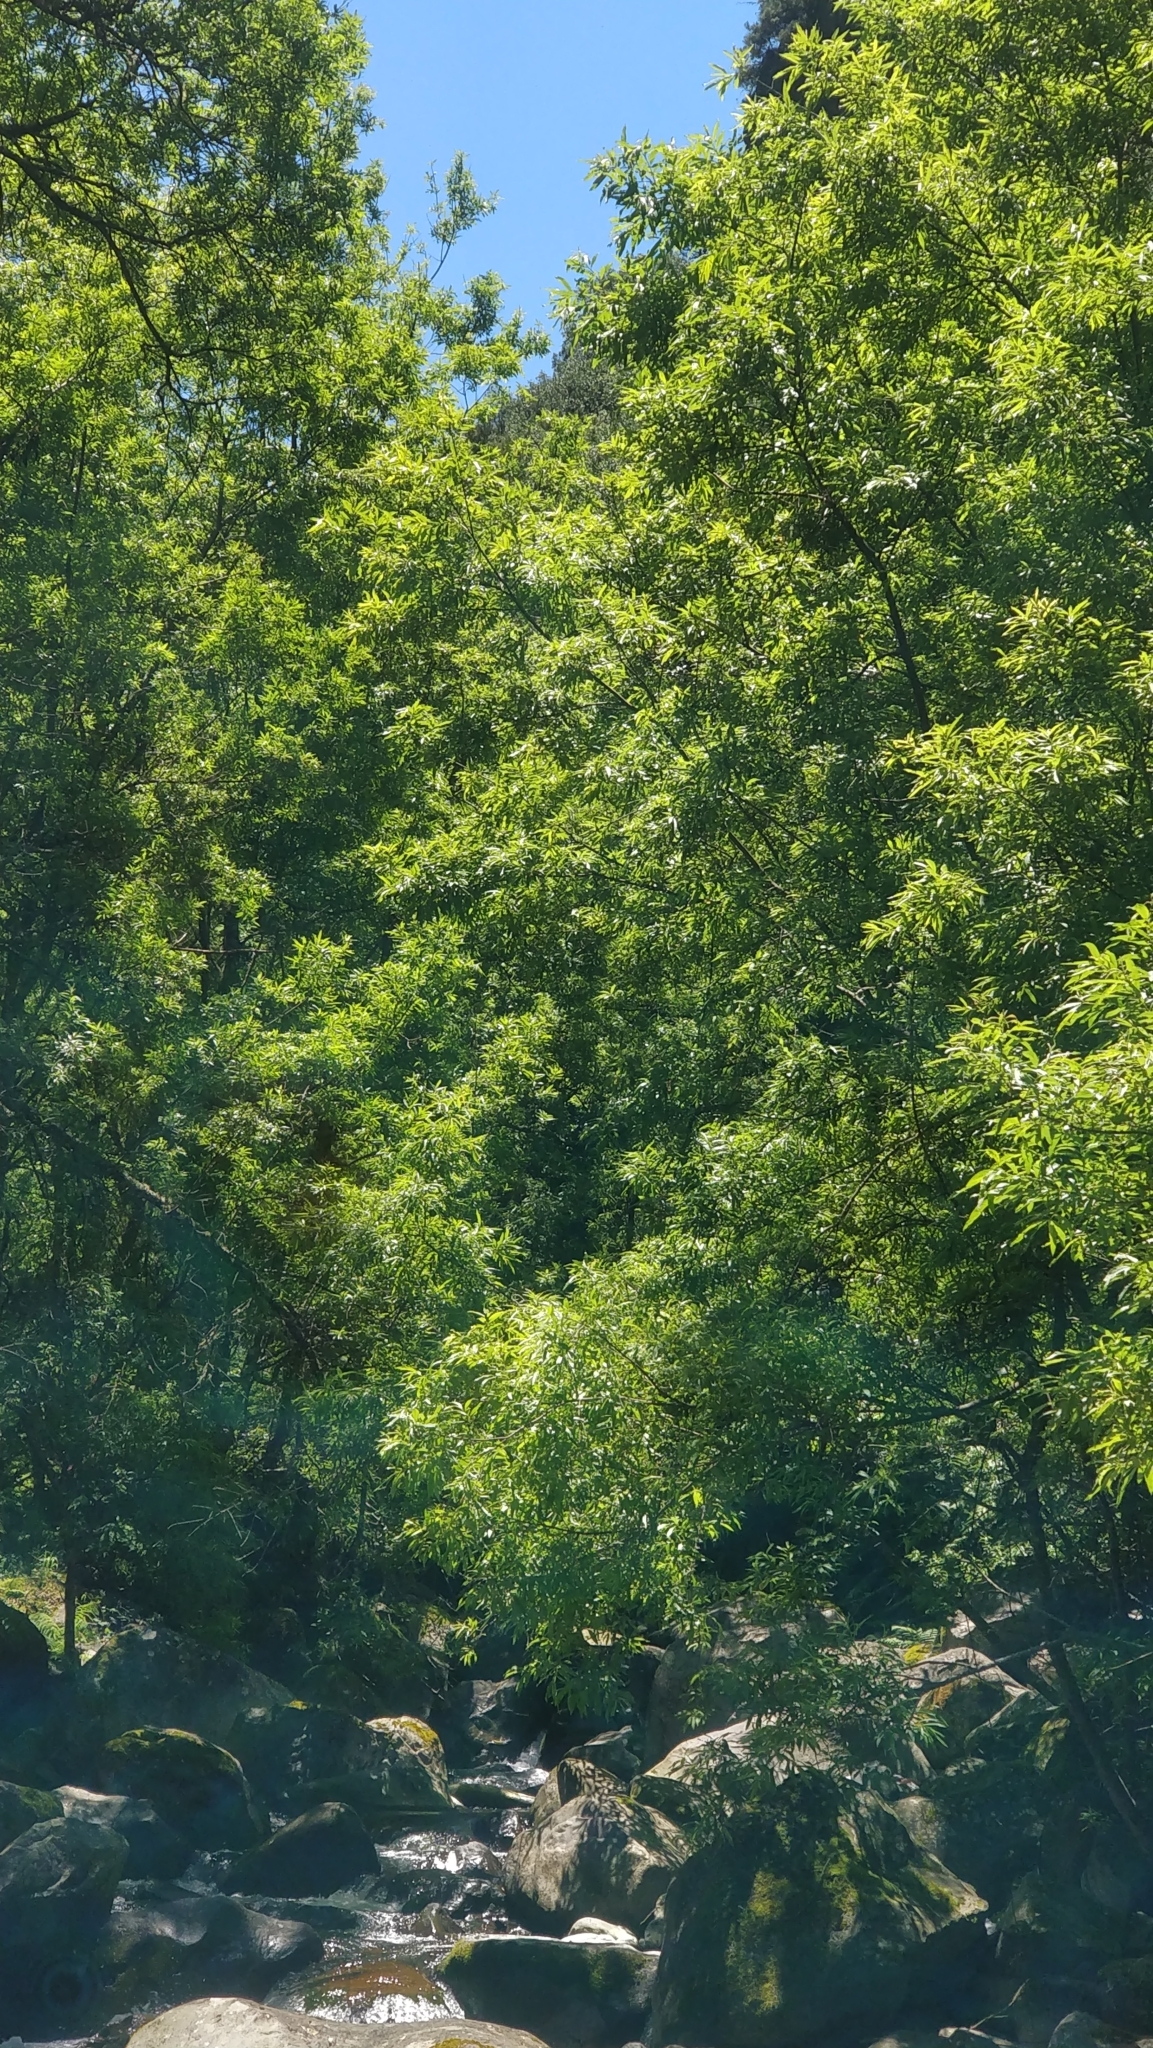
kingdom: Plantae
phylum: Tracheophyta
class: Magnoliopsida
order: Malpighiales
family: Salicaceae
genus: Salix
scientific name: Salix canariensis
